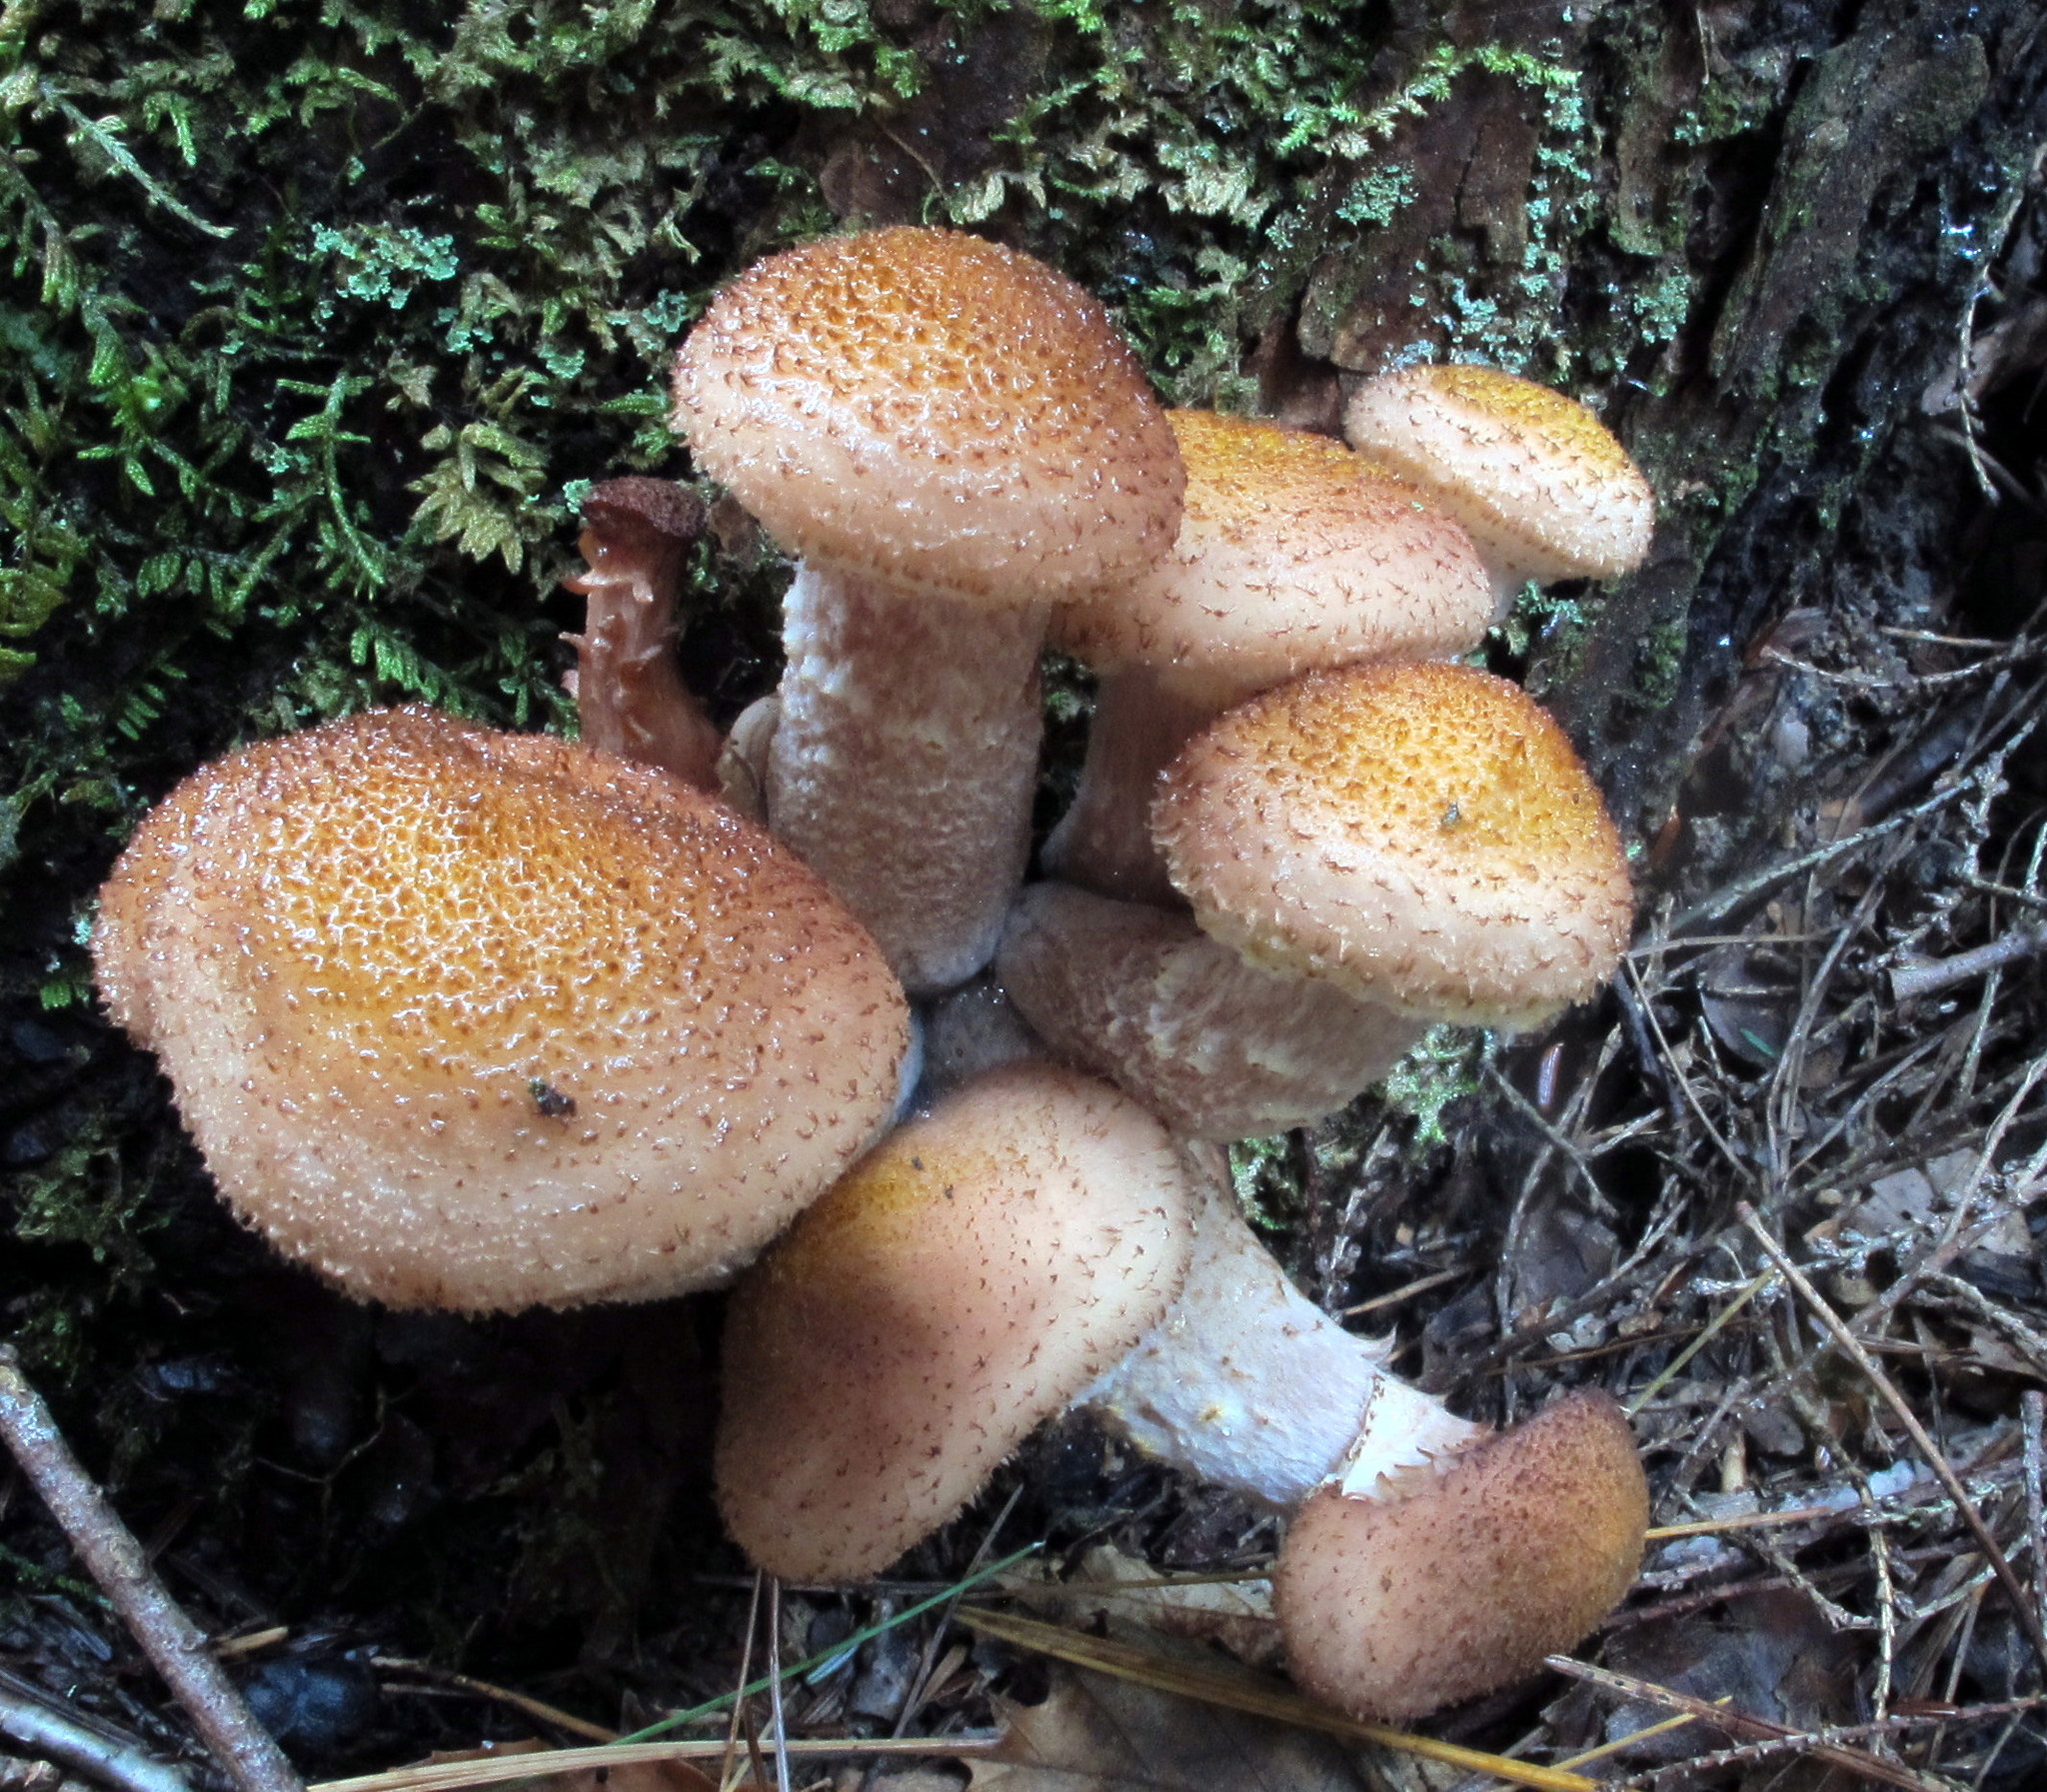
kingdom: Fungi
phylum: Basidiomycota
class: Agaricomycetes
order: Agaricales
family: Physalacriaceae
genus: Armillaria
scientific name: Armillaria ostoyae
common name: Dark honey fungus
